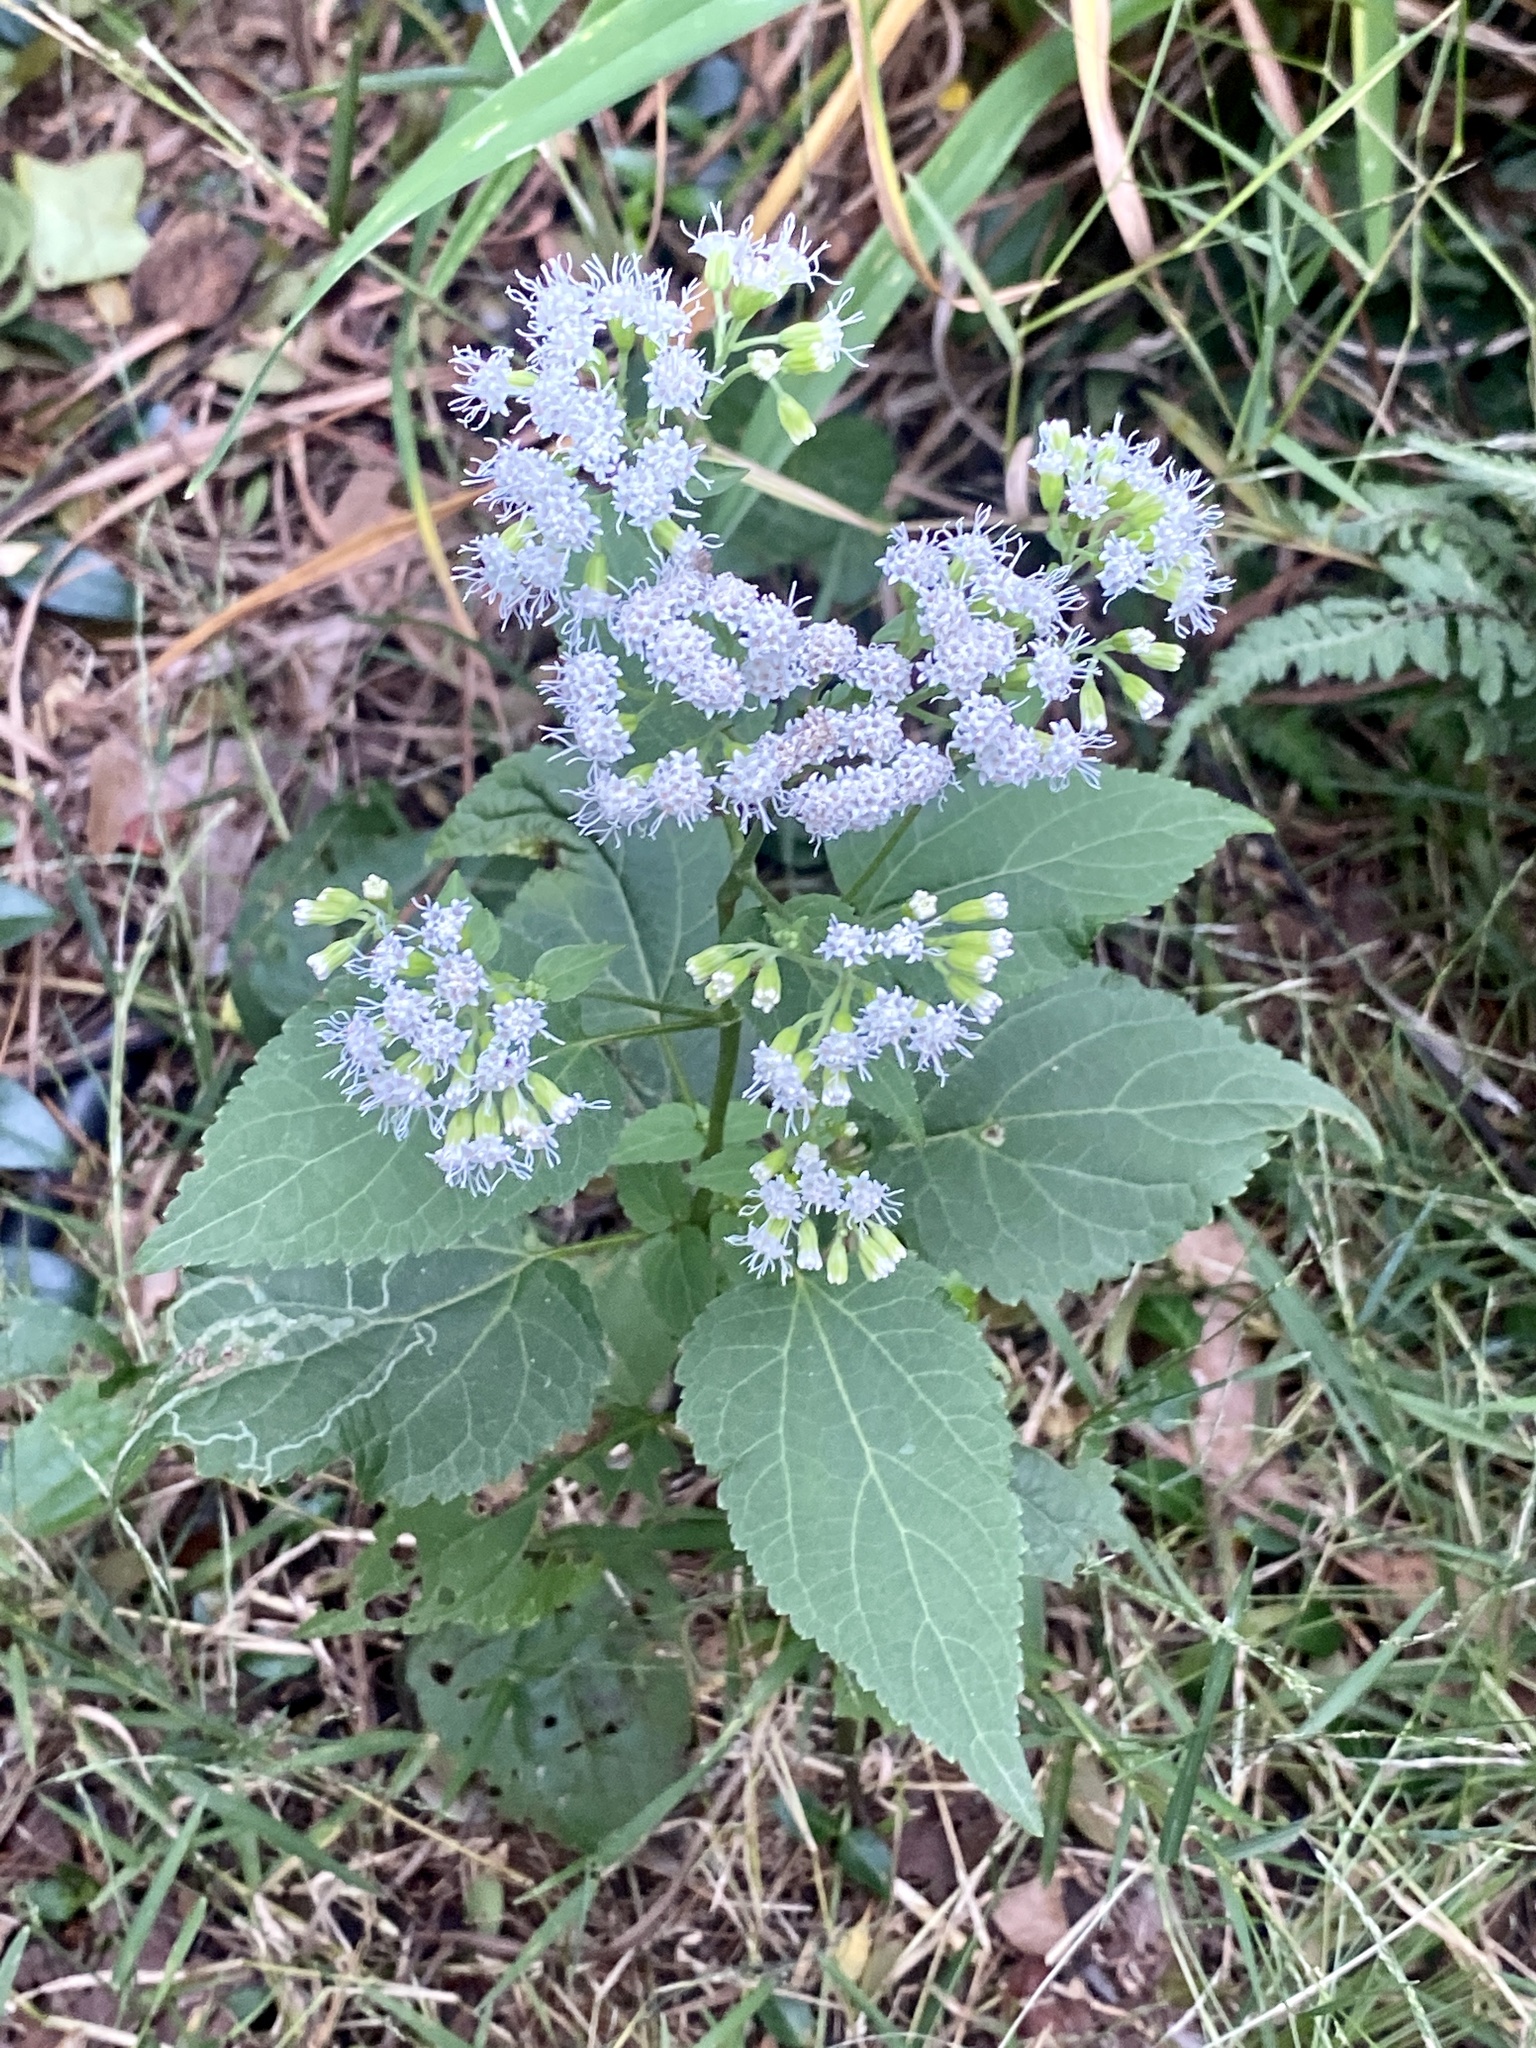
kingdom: Plantae
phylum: Tracheophyta
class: Magnoliopsida
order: Asterales
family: Asteraceae
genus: Ageratina
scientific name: Ageratina altissima
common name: White snakeroot
